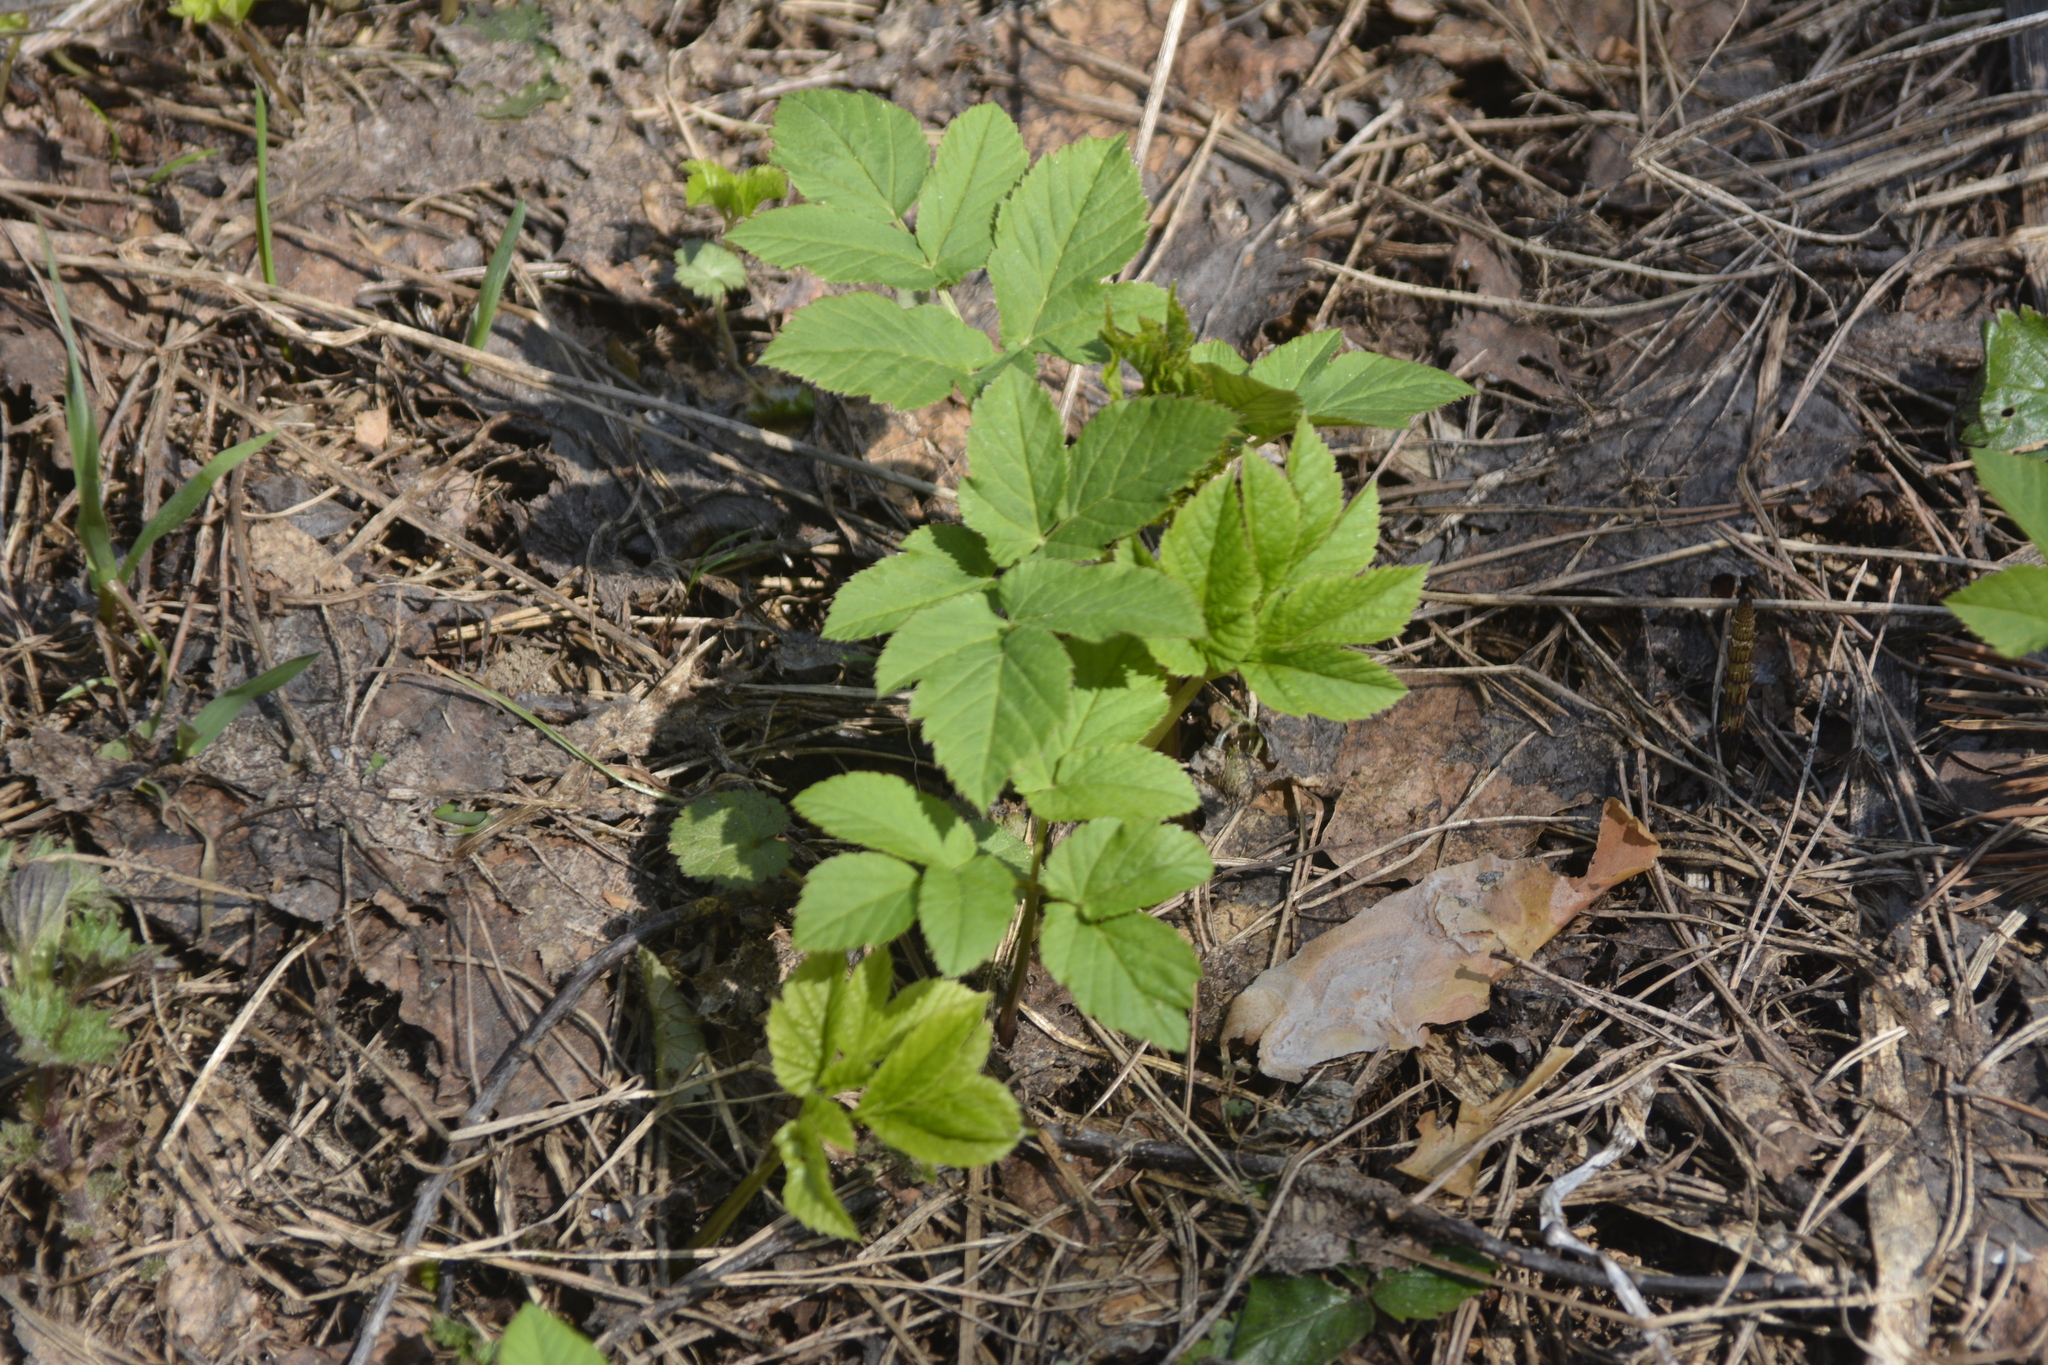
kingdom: Plantae
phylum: Tracheophyta
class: Magnoliopsida
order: Apiales
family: Apiaceae
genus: Aegopodium
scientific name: Aegopodium podagraria
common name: Ground-elder
